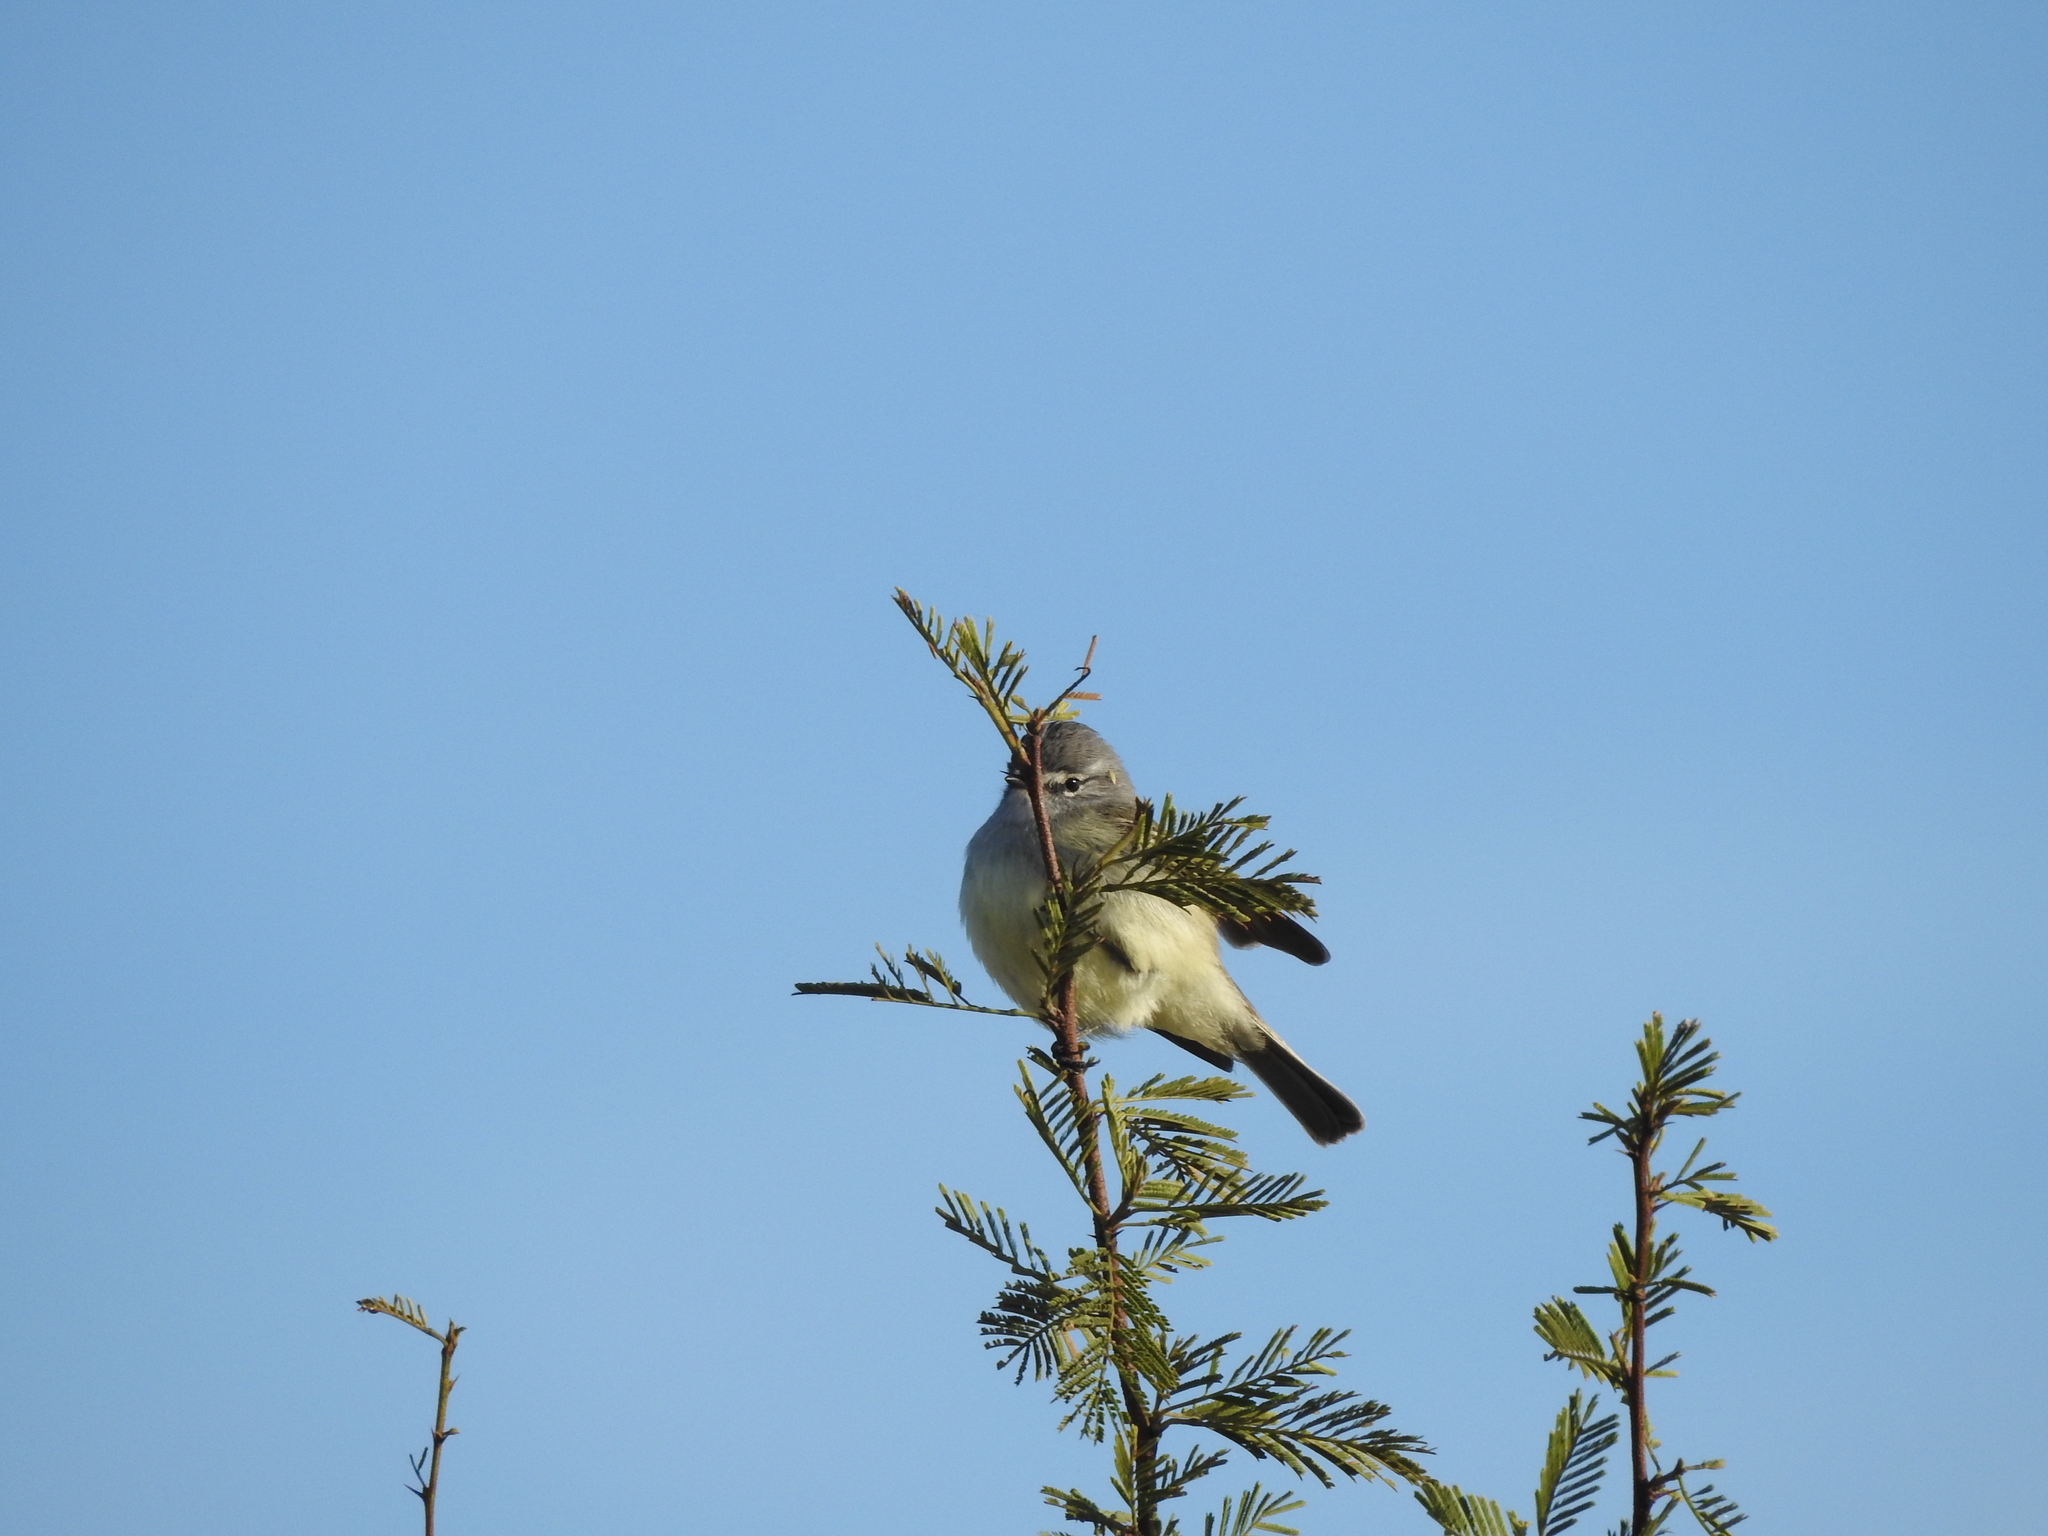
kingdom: Animalia
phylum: Chordata
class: Aves
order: Passeriformes
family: Tyrannidae
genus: Serpophaga
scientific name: Serpophaga griseicapilla
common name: Straneck's tyrannulet
